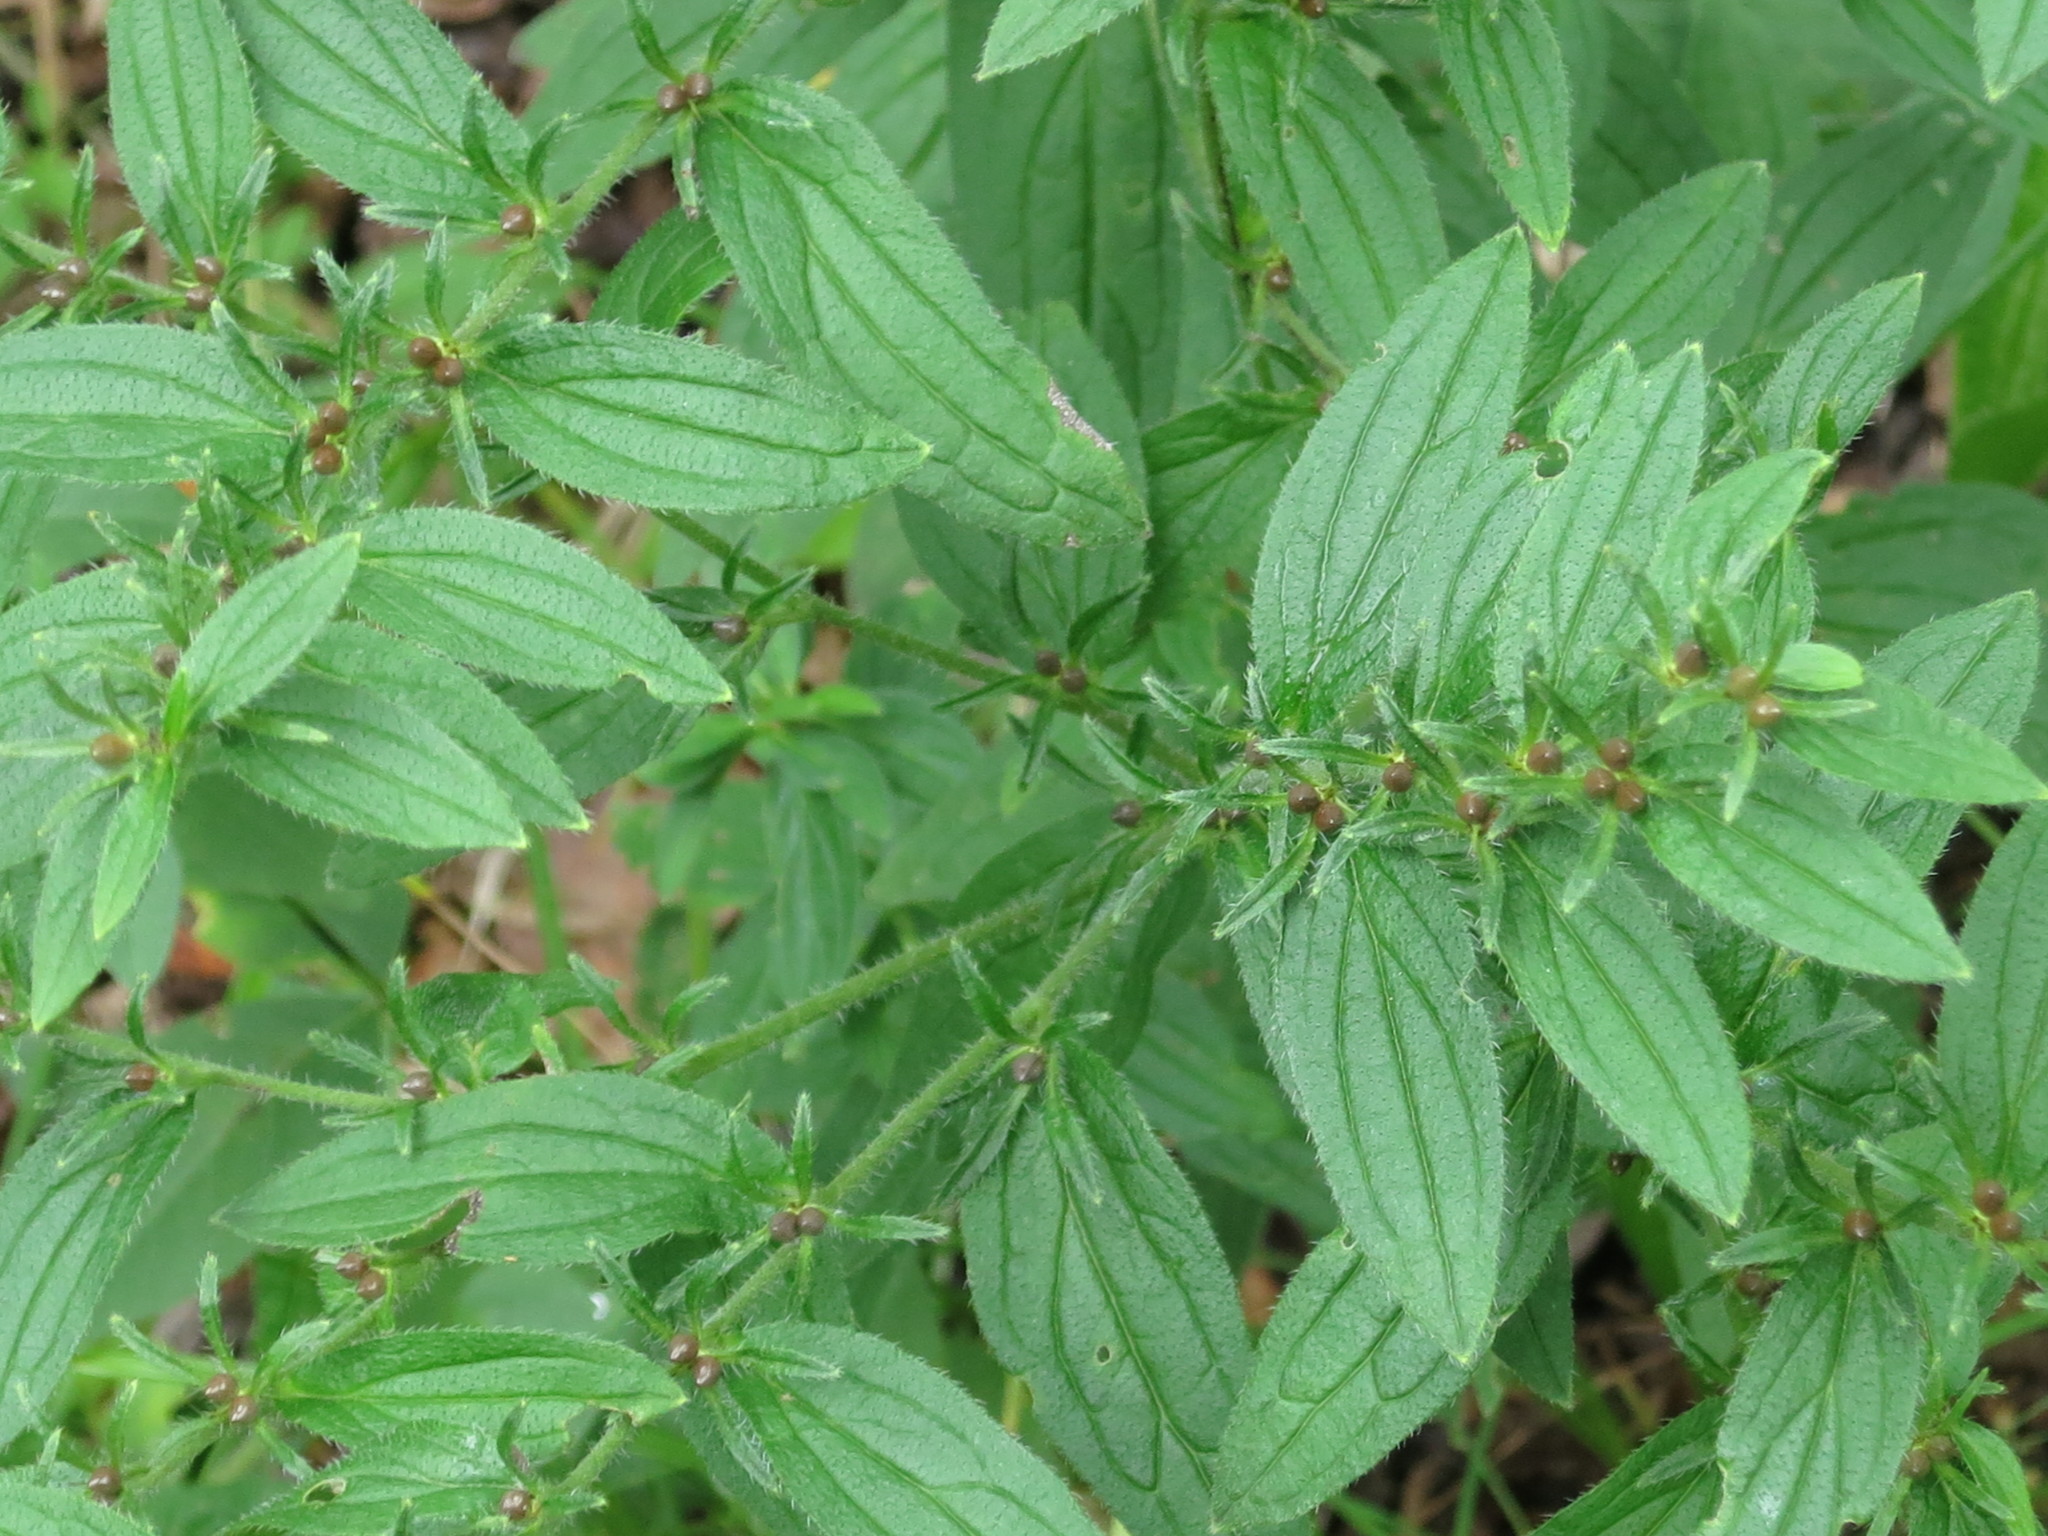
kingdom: Plantae
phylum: Tracheophyta
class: Magnoliopsida
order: Boraginales
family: Boraginaceae
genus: Lithospermum
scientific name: Lithospermum erythrorhizon
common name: Purple gromwell
